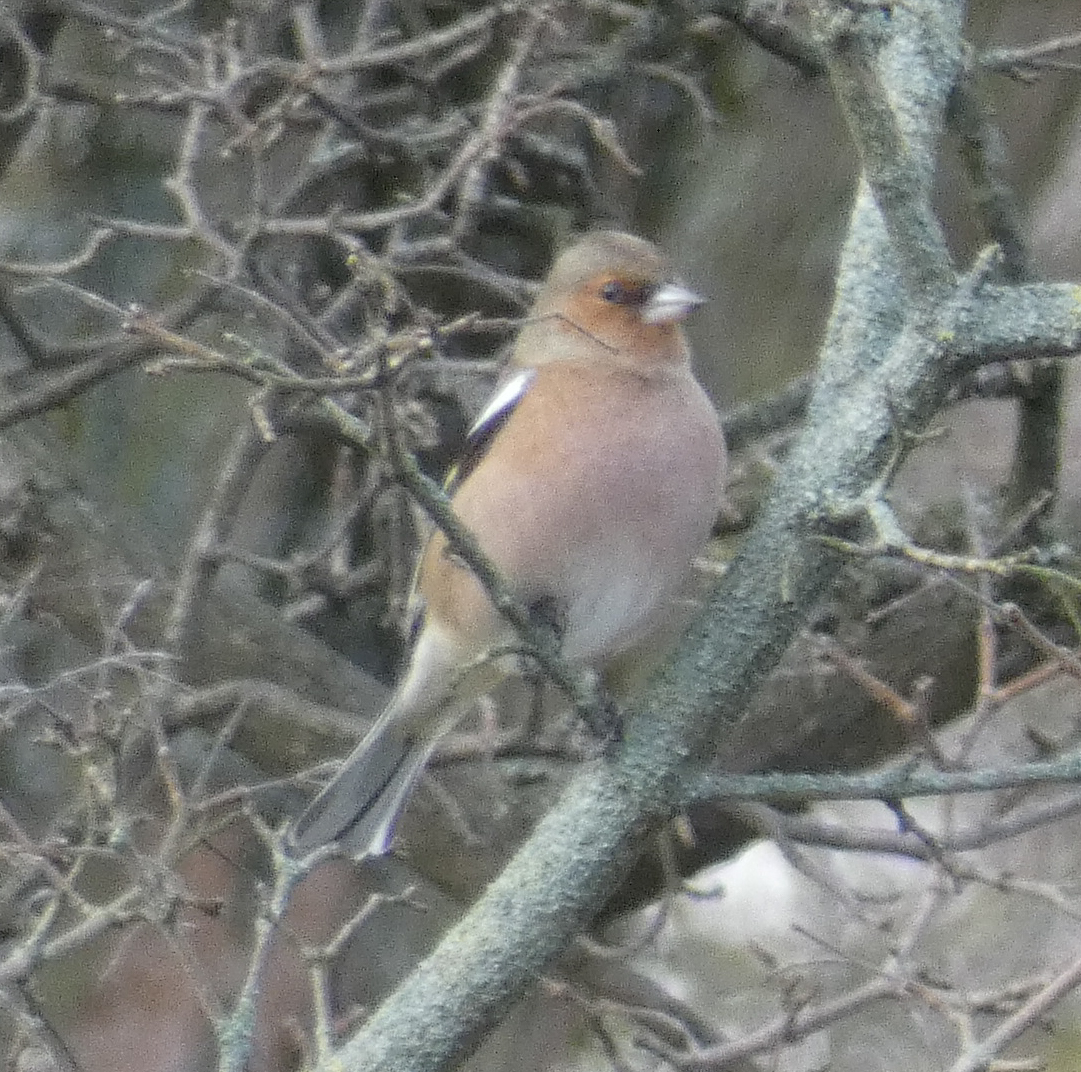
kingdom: Animalia
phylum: Chordata
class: Aves
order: Passeriformes
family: Fringillidae
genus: Fringilla
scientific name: Fringilla coelebs
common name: Common chaffinch
